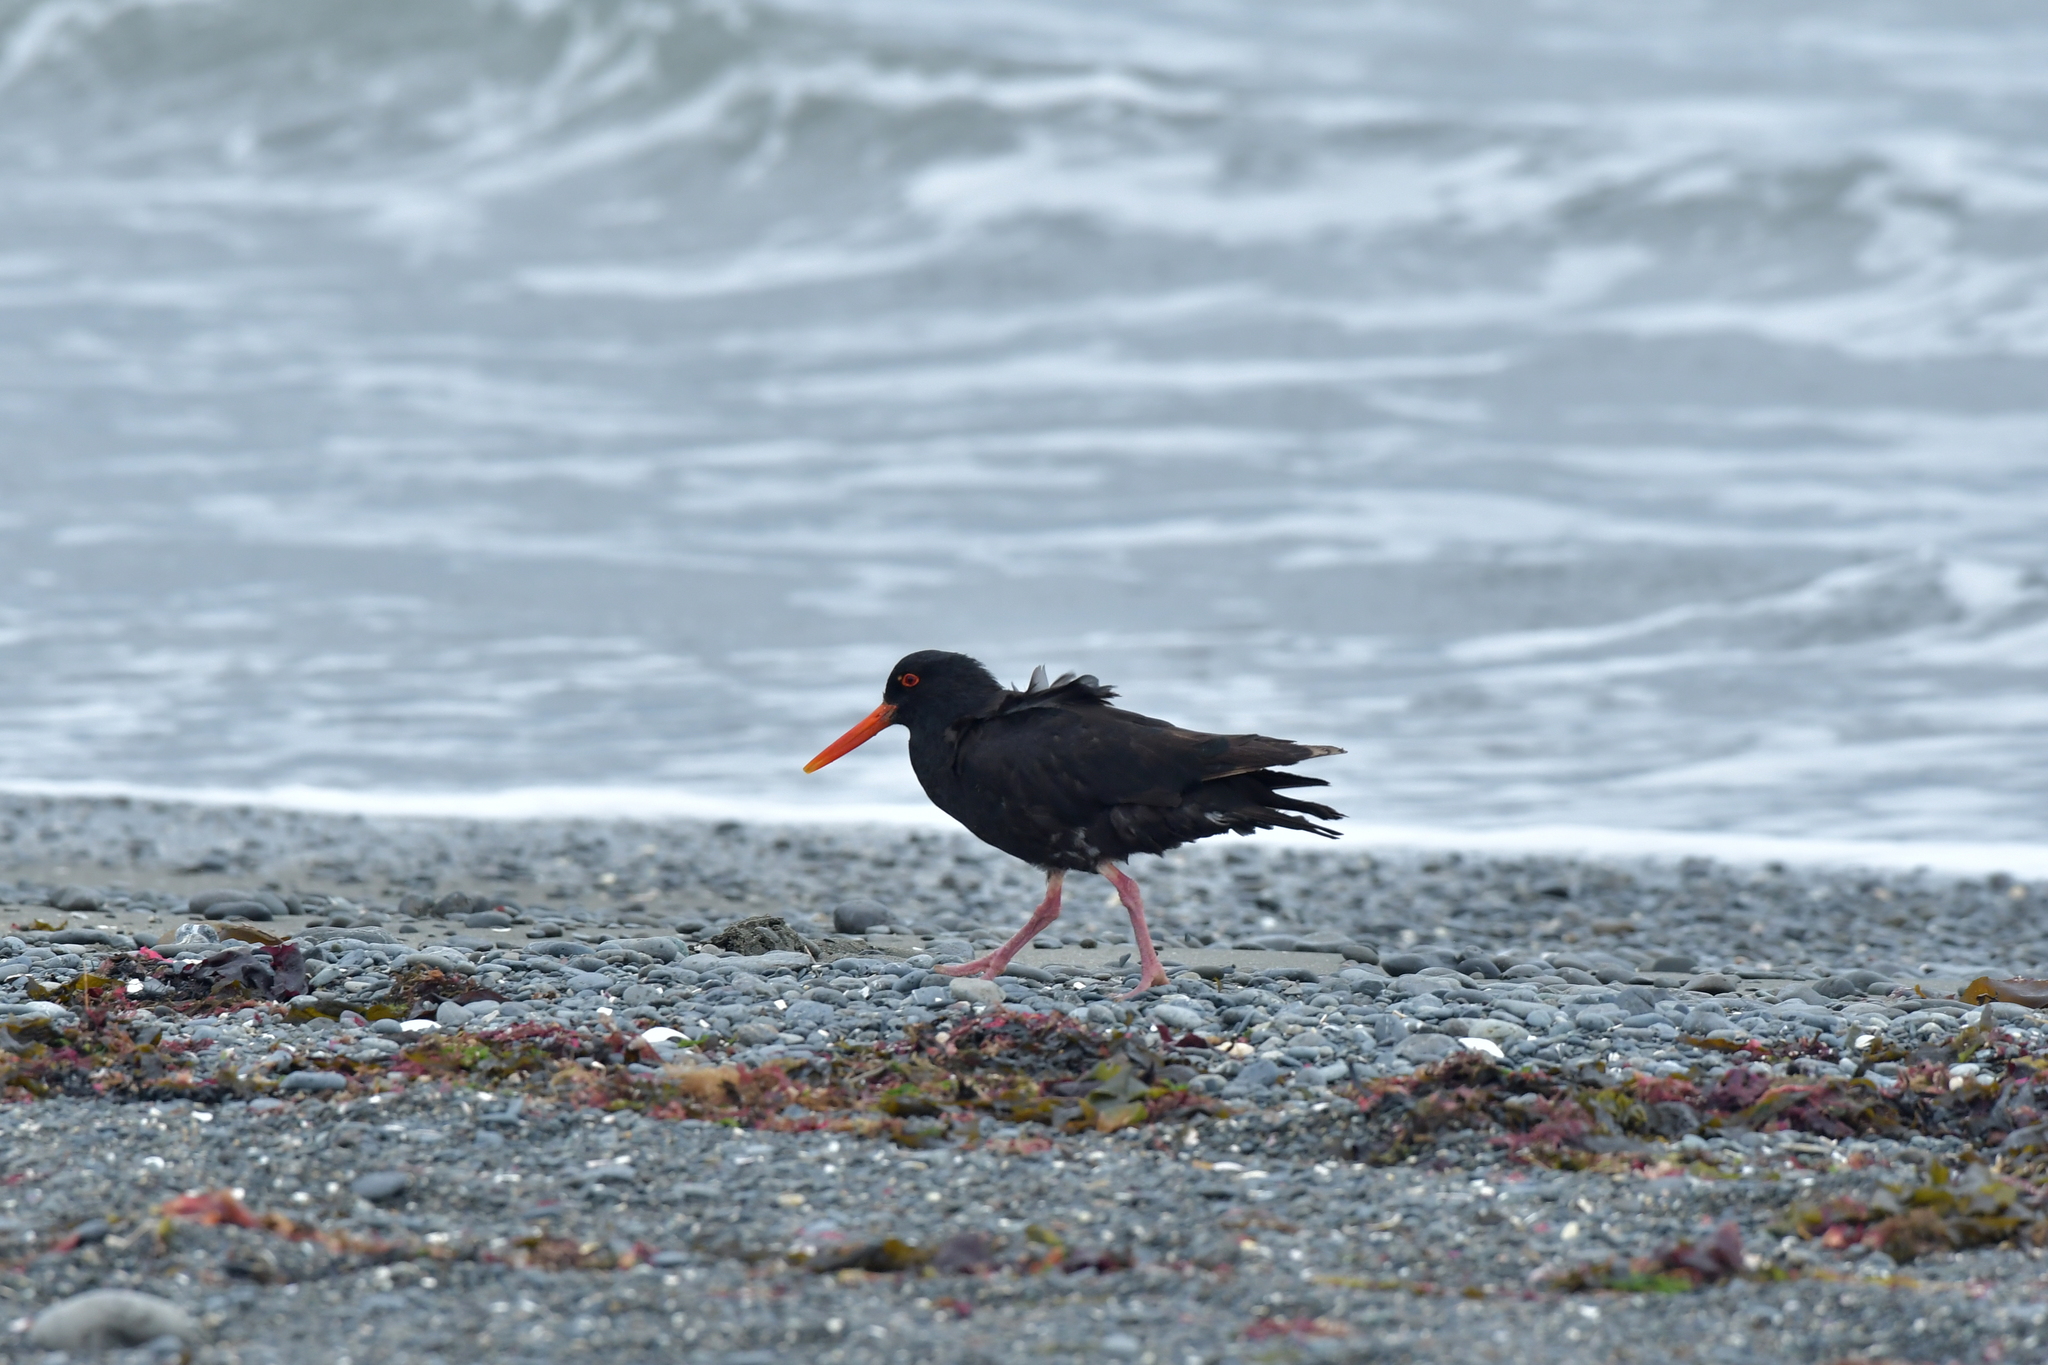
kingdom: Animalia
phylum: Chordata
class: Aves
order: Charadriiformes
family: Haematopodidae
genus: Haematopus
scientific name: Haematopus unicolor
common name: Variable oystercatcher
